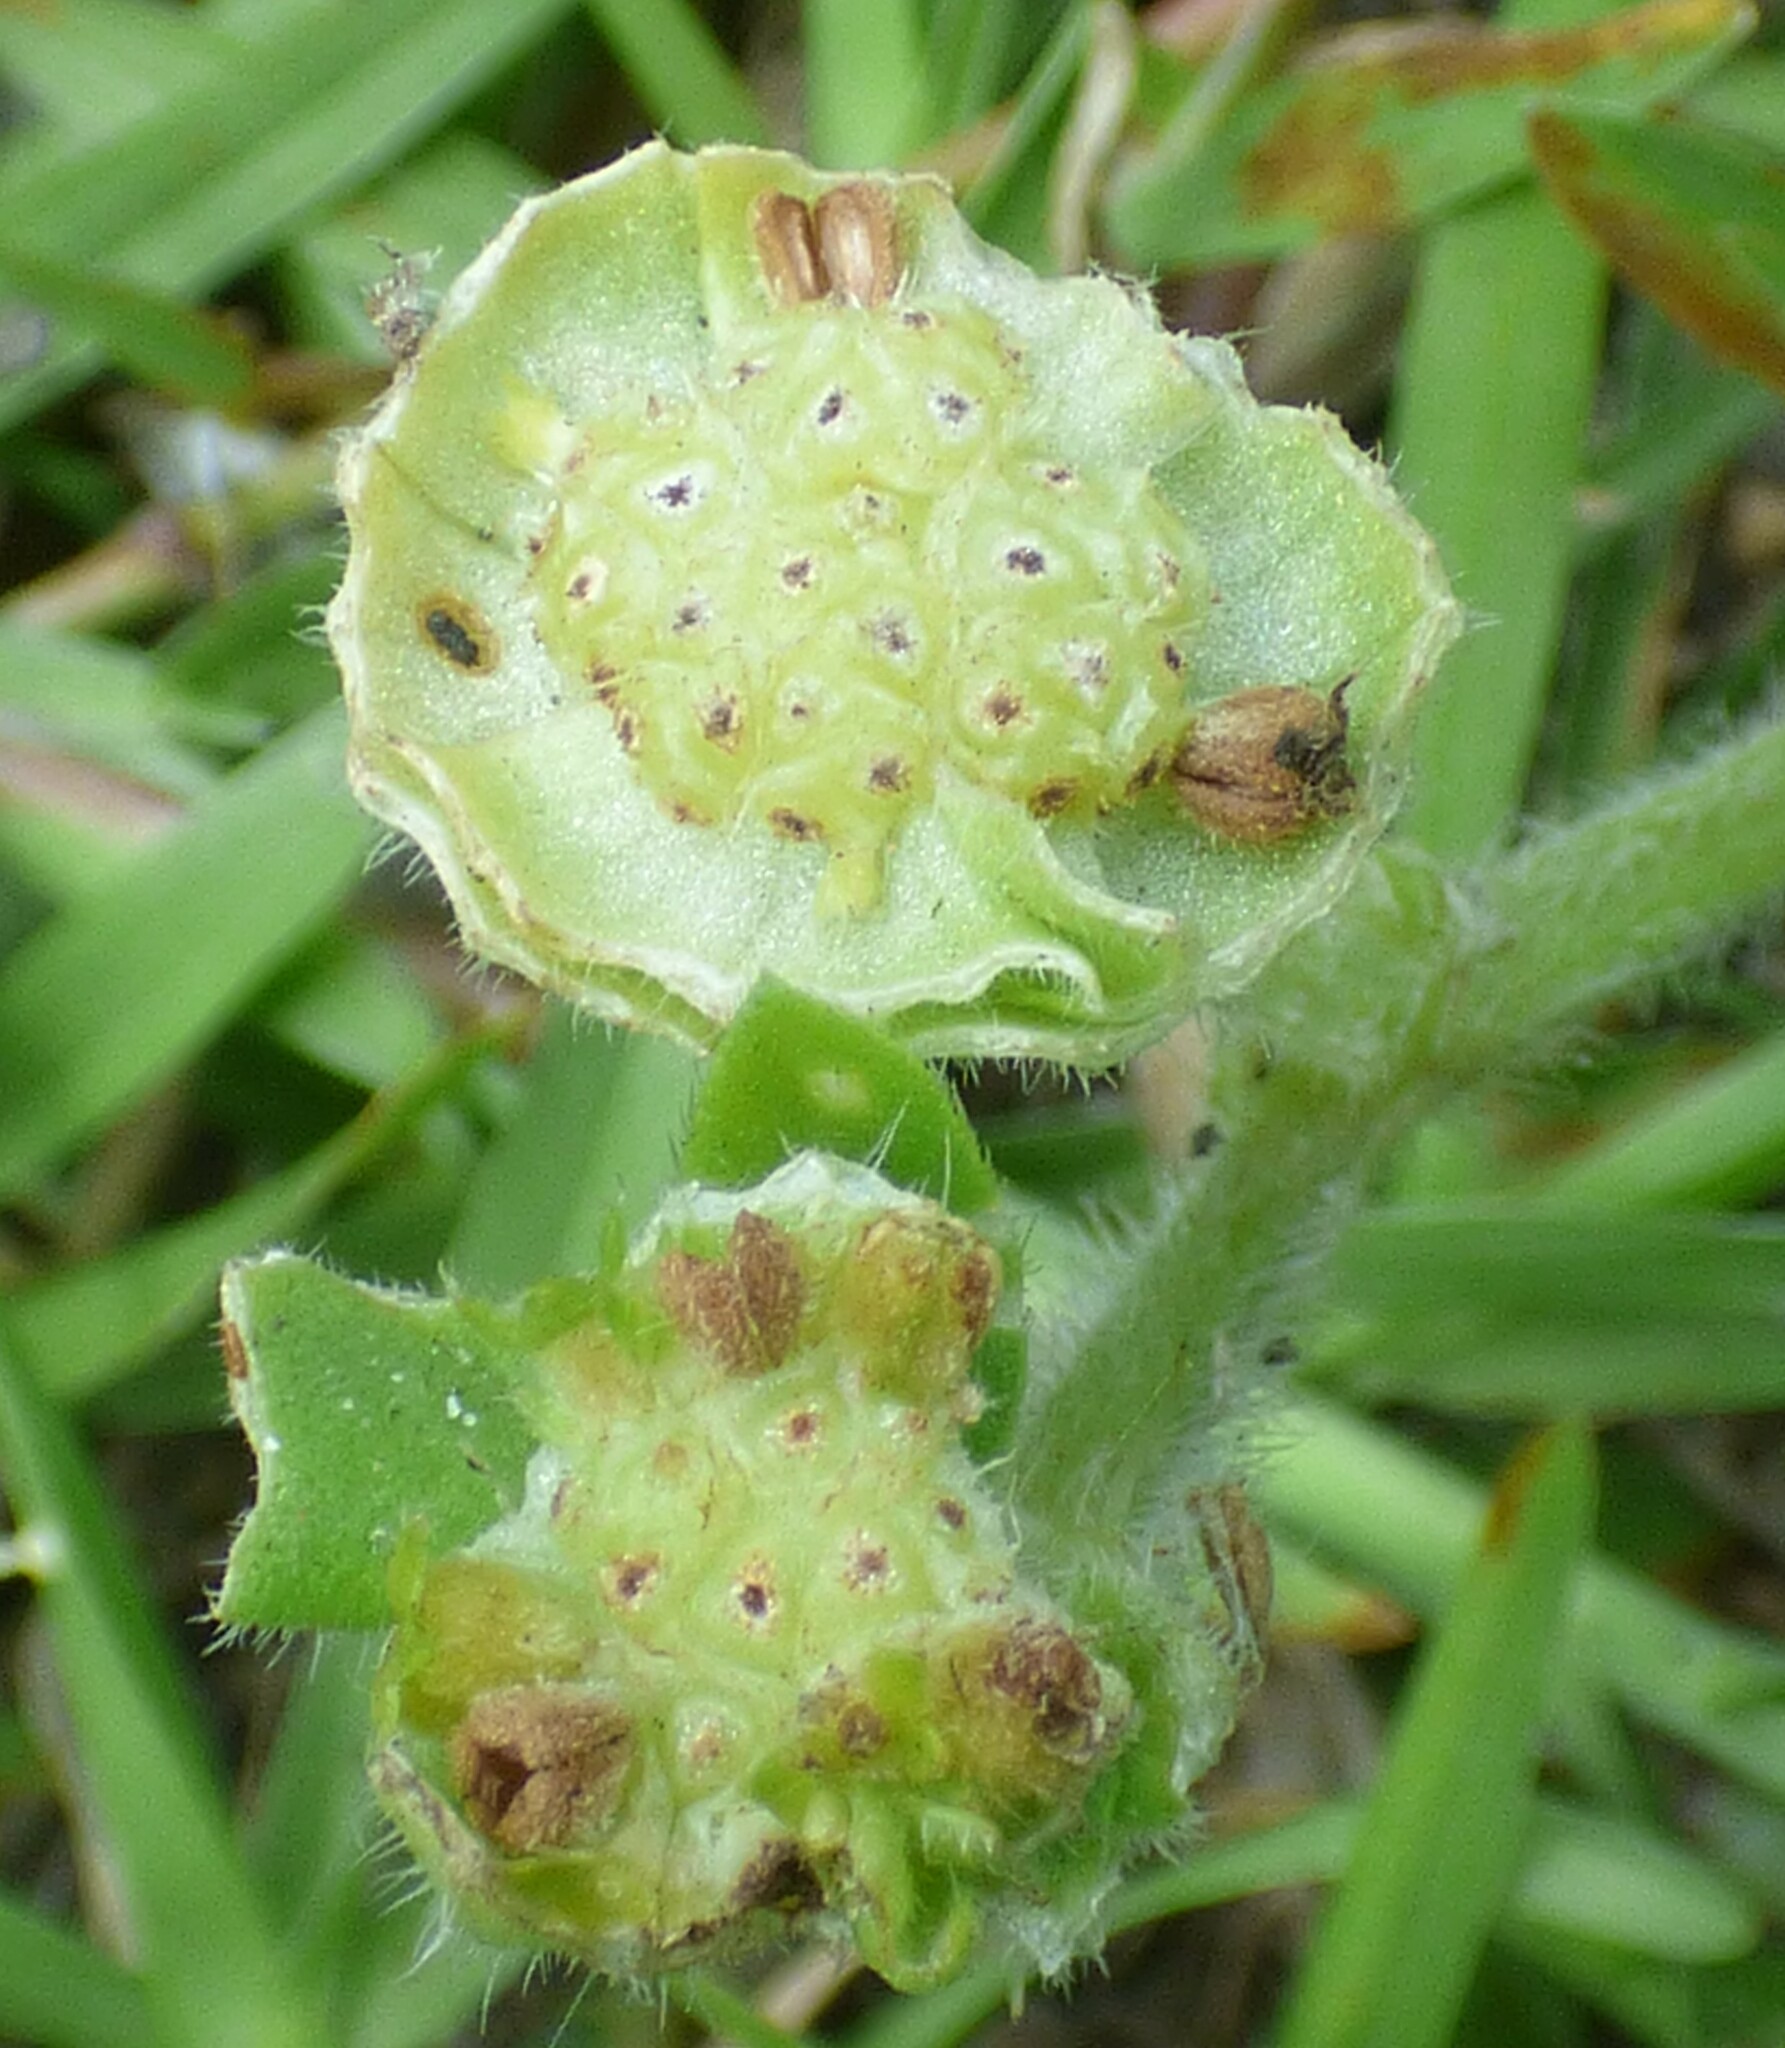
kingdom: Plantae
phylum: Tracheophyta
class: Magnoliopsida
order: Gentianales
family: Rubiaceae
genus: Richardia
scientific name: Richardia brasiliensis
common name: Tropical mexican clover
